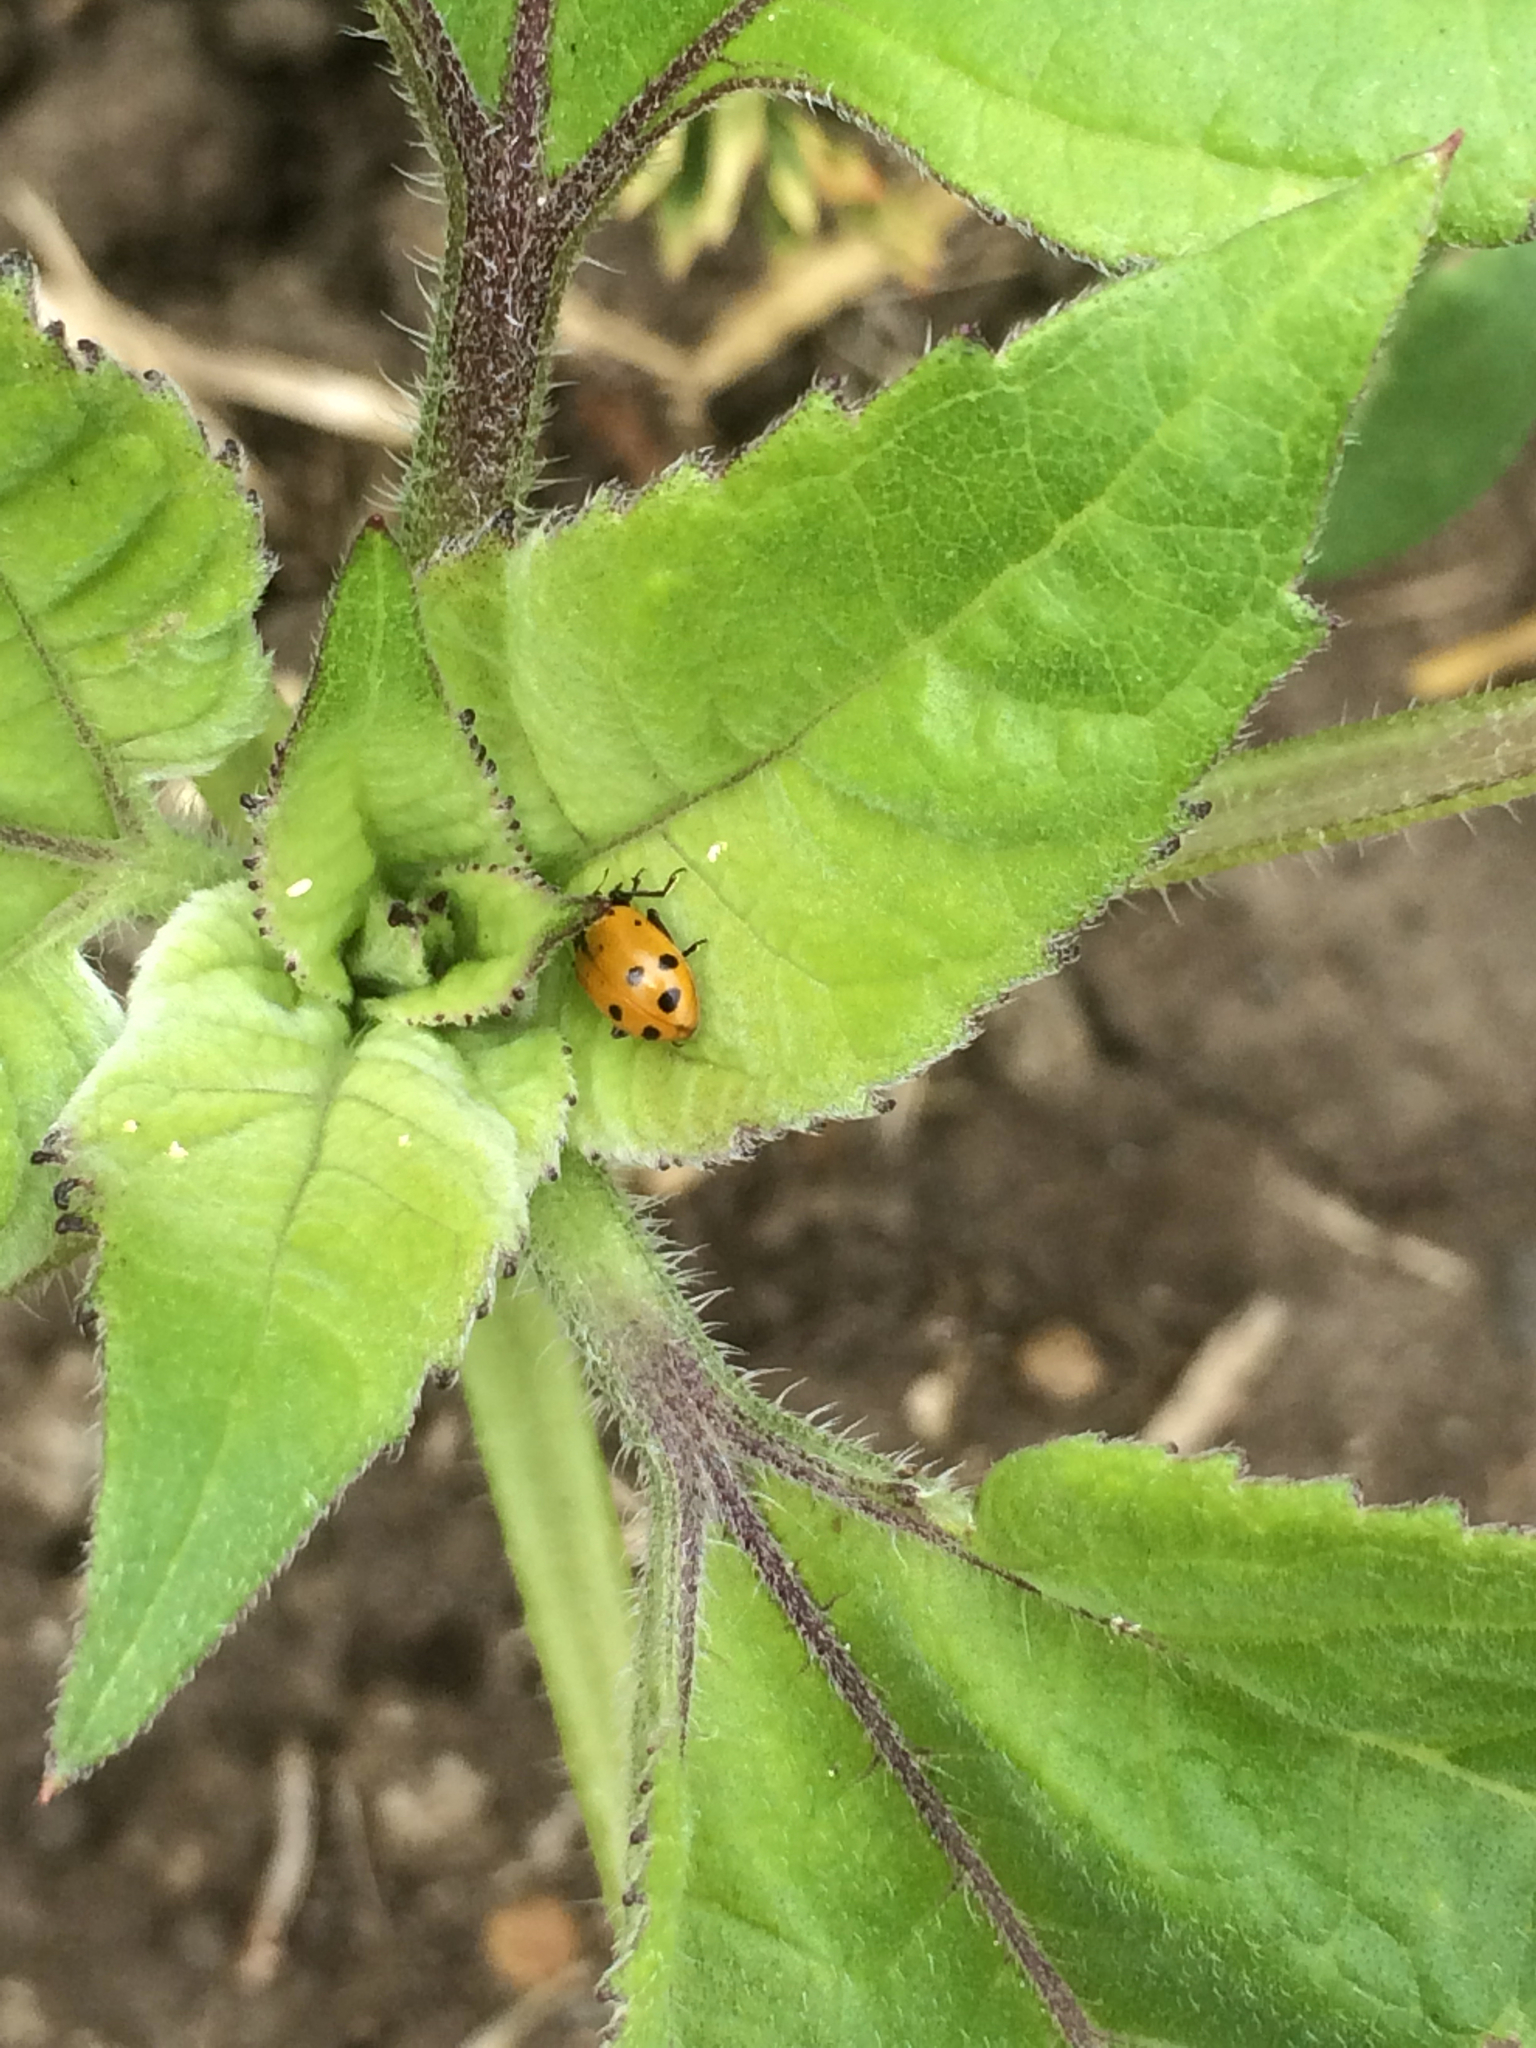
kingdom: Animalia
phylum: Arthropoda
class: Insecta
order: Coleoptera
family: Coccinellidae
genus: Hippodamia
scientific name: Hippodamia convergens
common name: Convergent lady beetle
